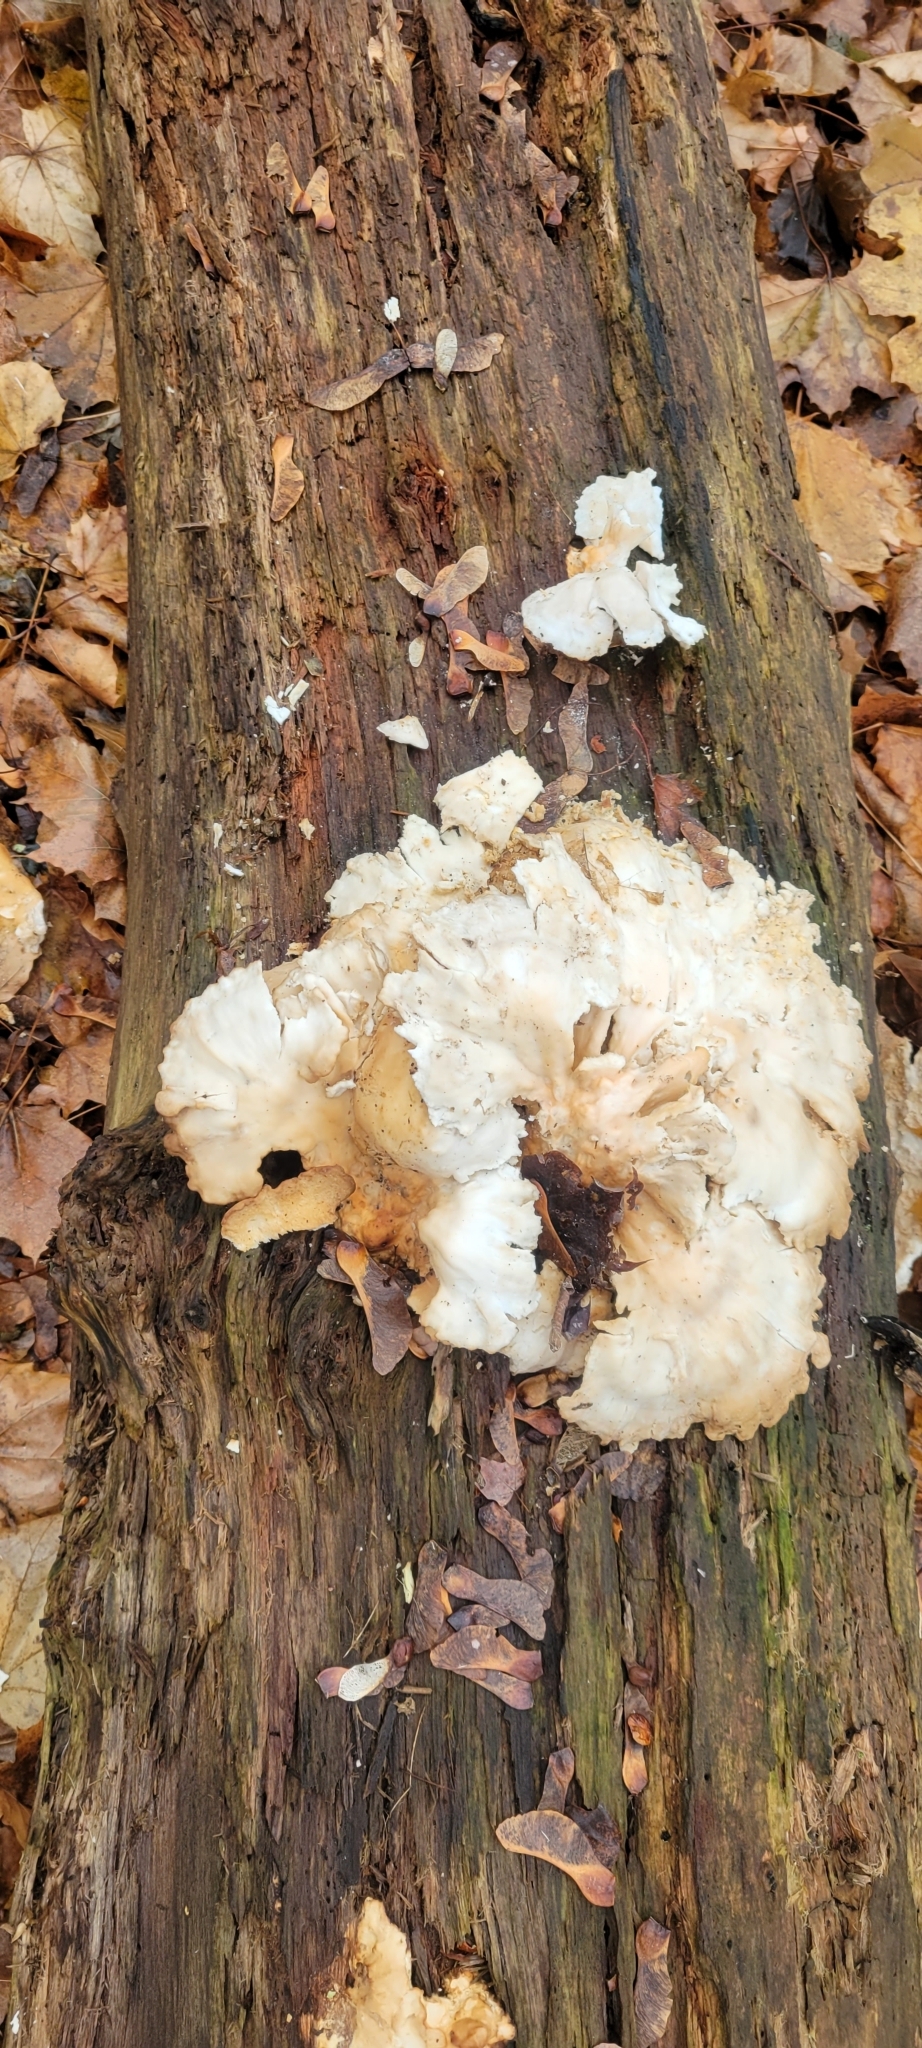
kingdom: Fungi
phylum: Basidiomycota
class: Agaricomycetes
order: Polyporales
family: Laetiporaceae
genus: Laetiporus
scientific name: Laetiporus sulphureus
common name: Chicken of the woods
